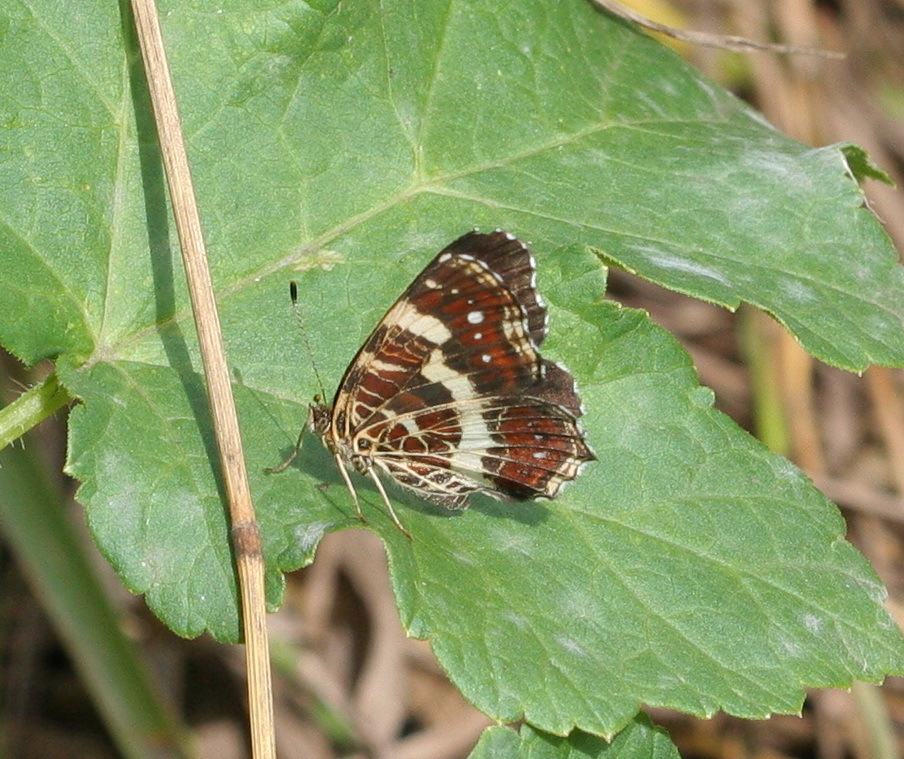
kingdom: Animalia
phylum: Arthropoda
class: Insecta
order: Lepidoptera
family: Nymphalidae
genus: Araschnia
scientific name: Araschnia levana
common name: Map butterfly
